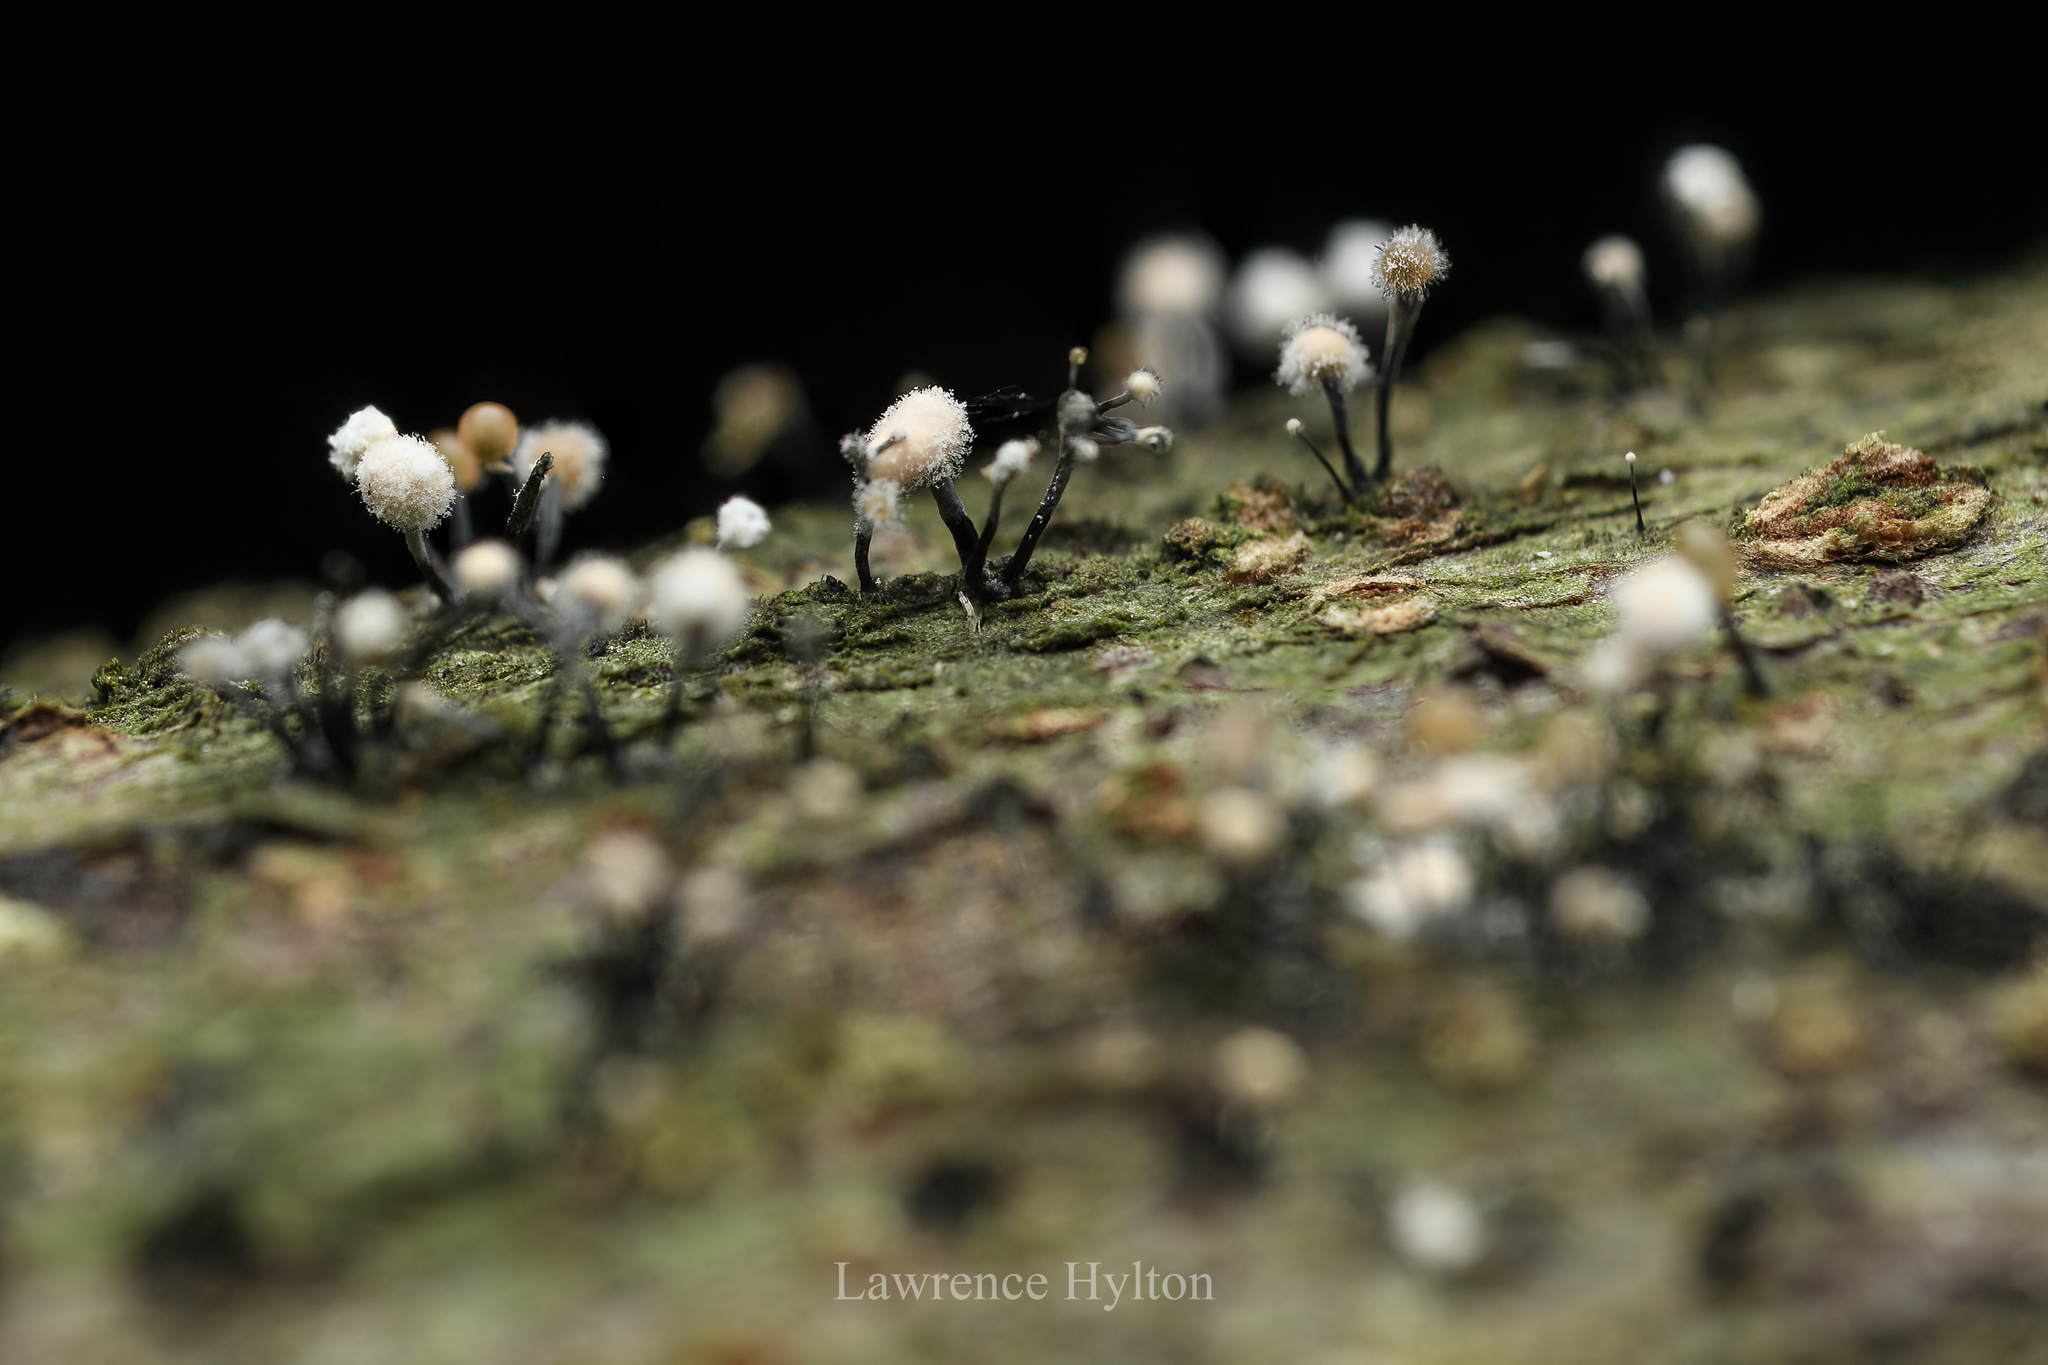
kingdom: Fungi
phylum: Ascomycota
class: Sordariomycetes
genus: Stromatographium
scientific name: Stromatographium stromaticum
